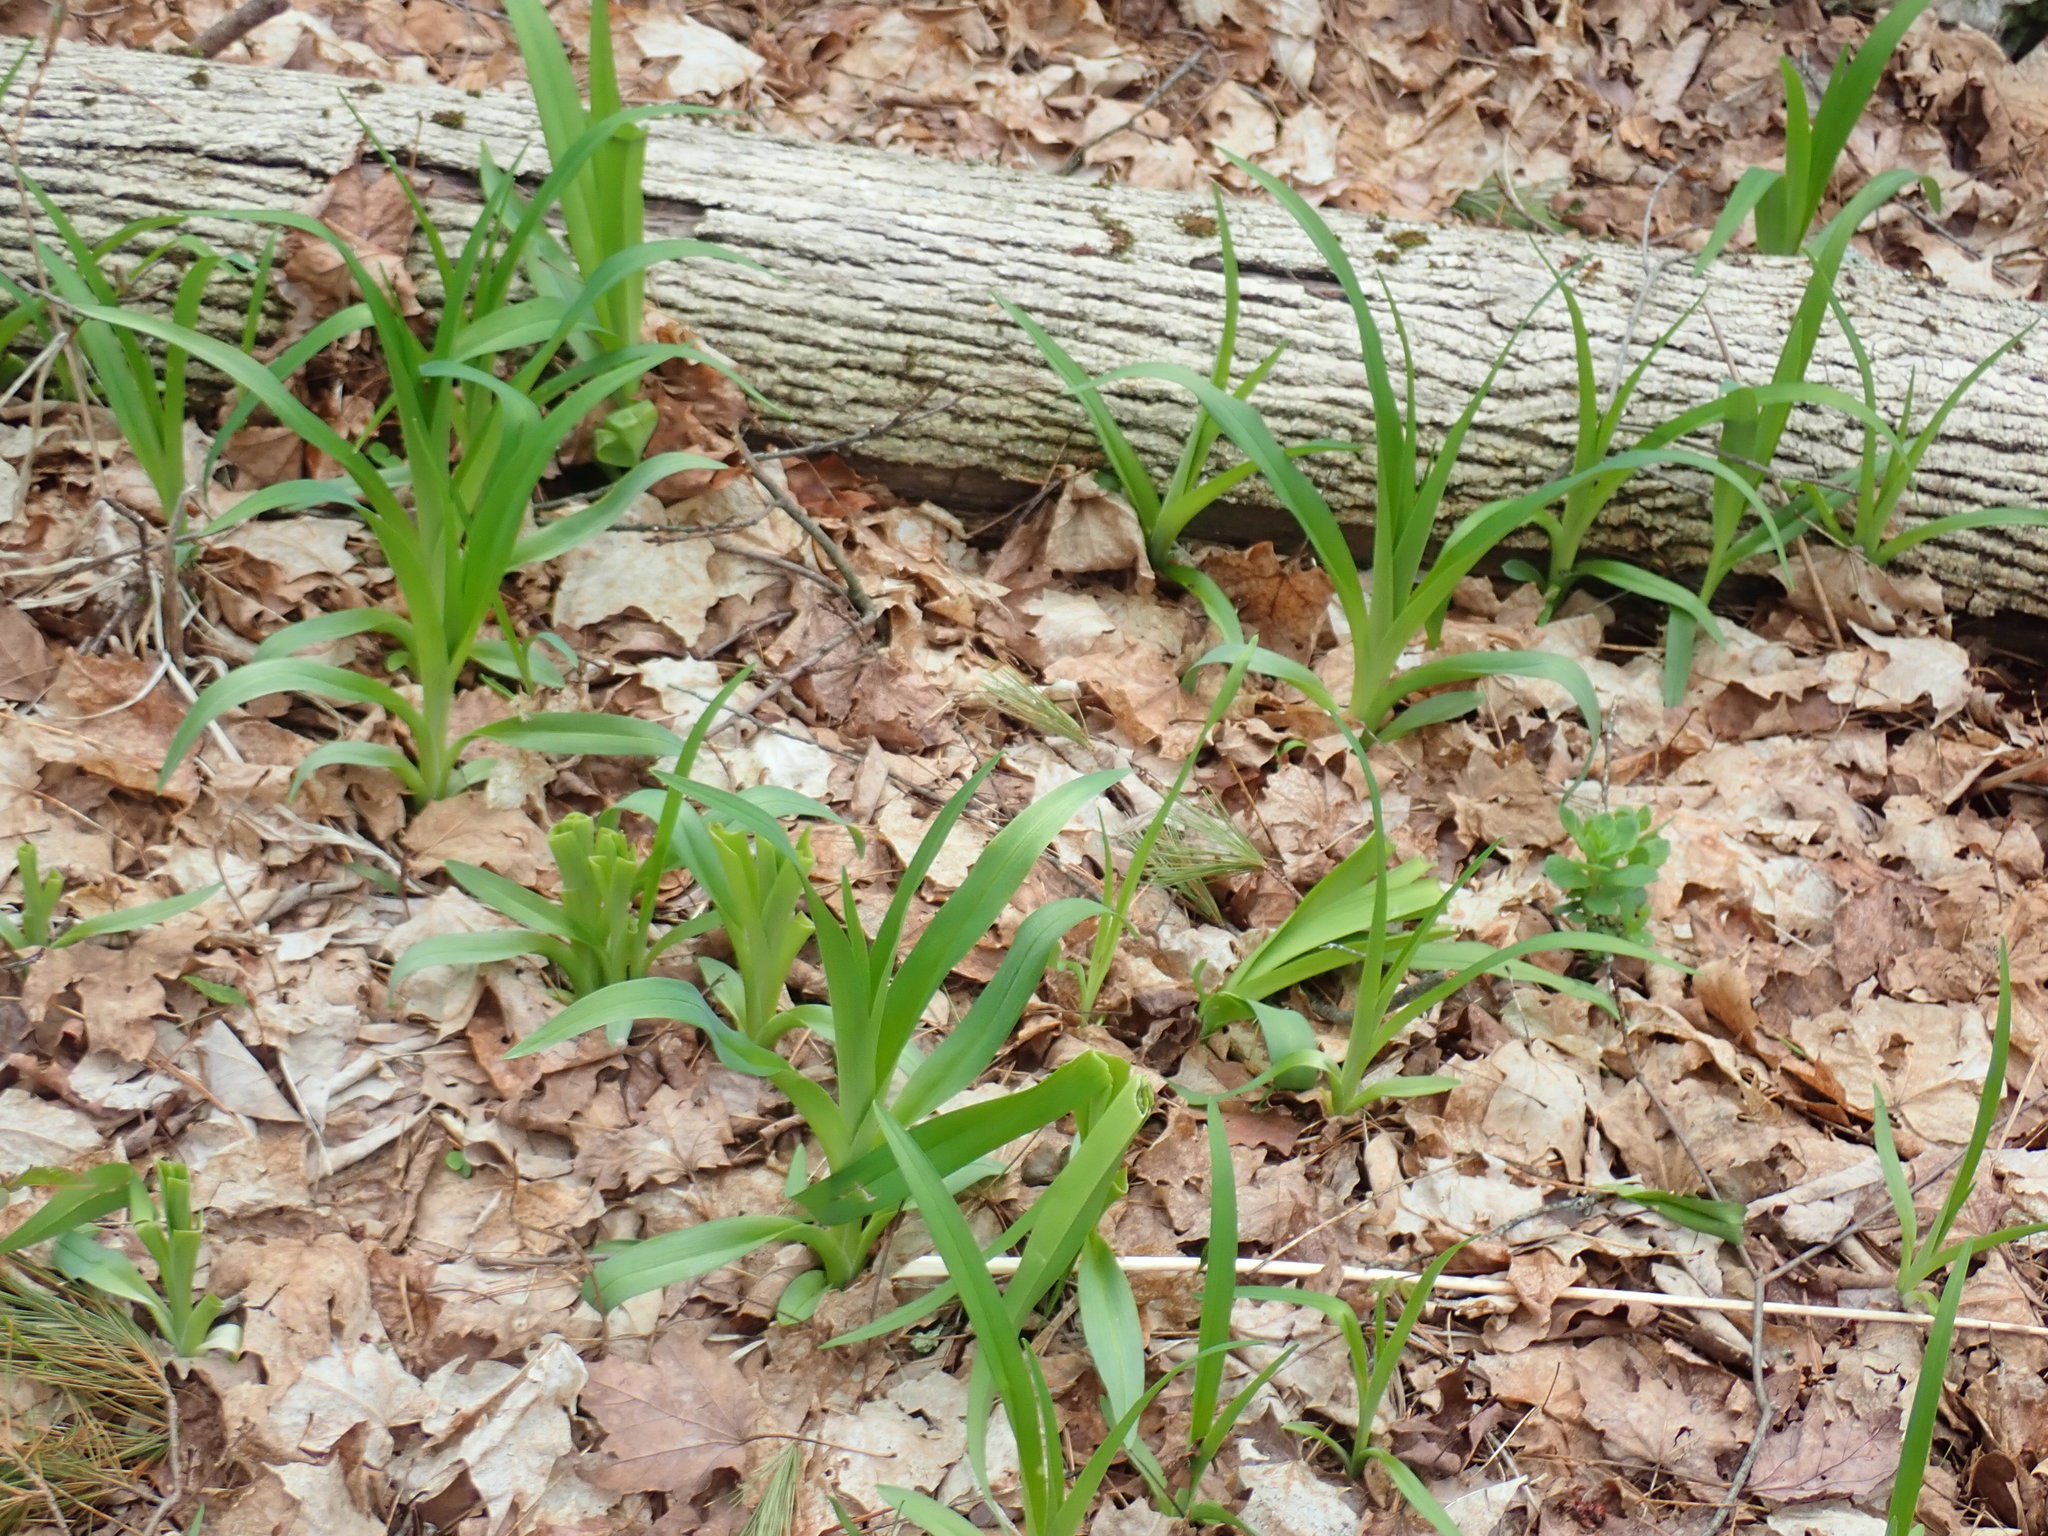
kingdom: Plantae
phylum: Tracheophyta
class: Liliopsida
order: Asparagales
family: Asphodelaceae
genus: Hemerocallis
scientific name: Hemerocallis
